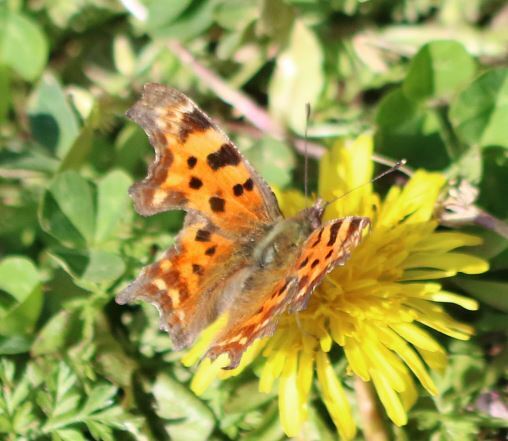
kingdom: Animalia
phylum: Arthropoda
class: Insecta
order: Lepidoptera
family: Nymphalidae
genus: Polygonia
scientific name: Polygonia c-album
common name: Comma
